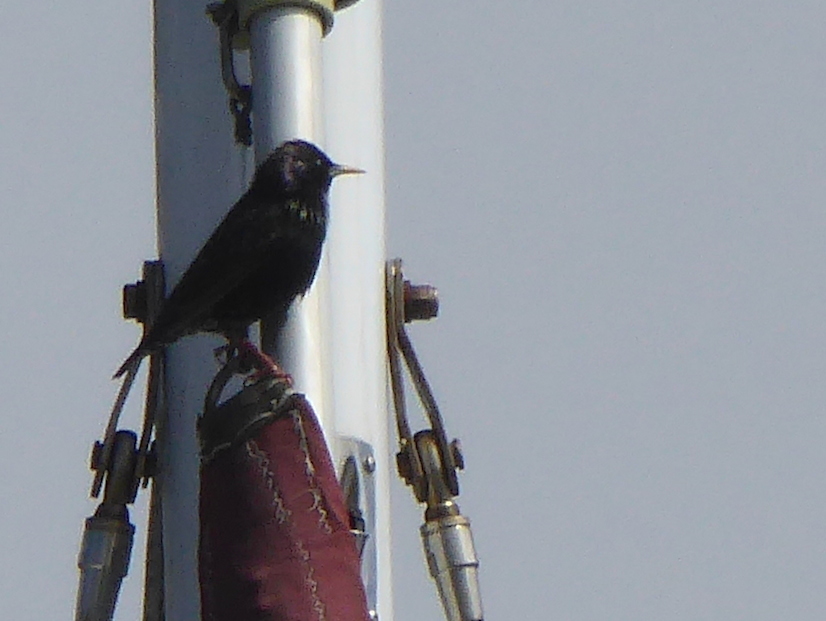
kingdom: Animalia
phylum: Chordata
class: Aves
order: Passeriformes
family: Sturnidae
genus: Sturnus
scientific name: Sturnus vulgaris
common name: Common starling
